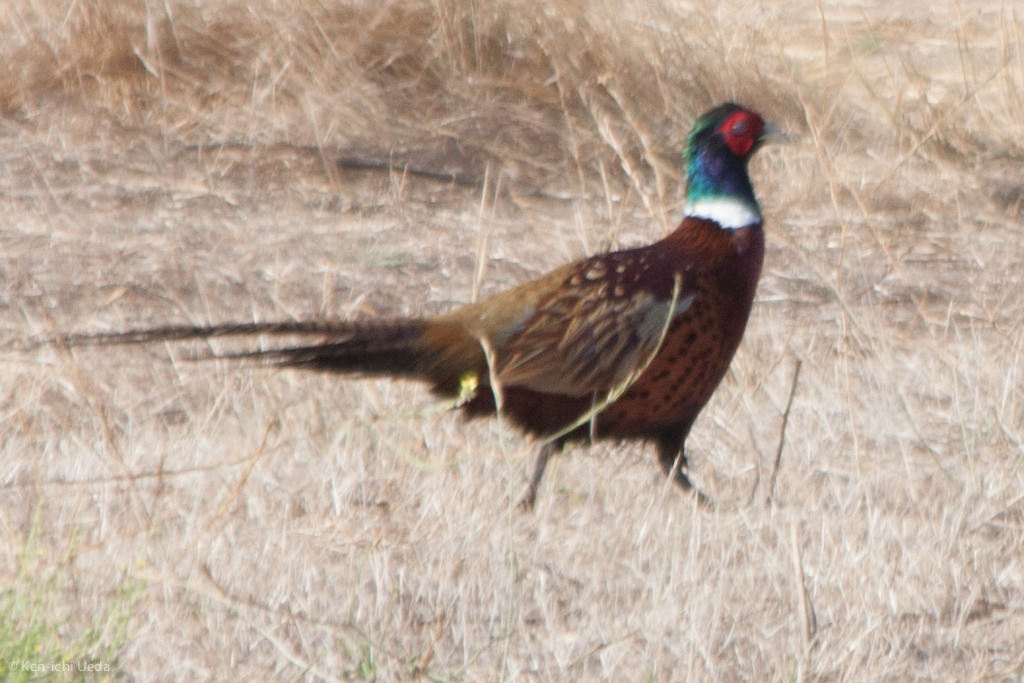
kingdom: Animalia
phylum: Chordata
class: Aves
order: Galliformes
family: Phasianidae
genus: Phasianus
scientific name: Phasianus colchicus
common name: Common pheasant
